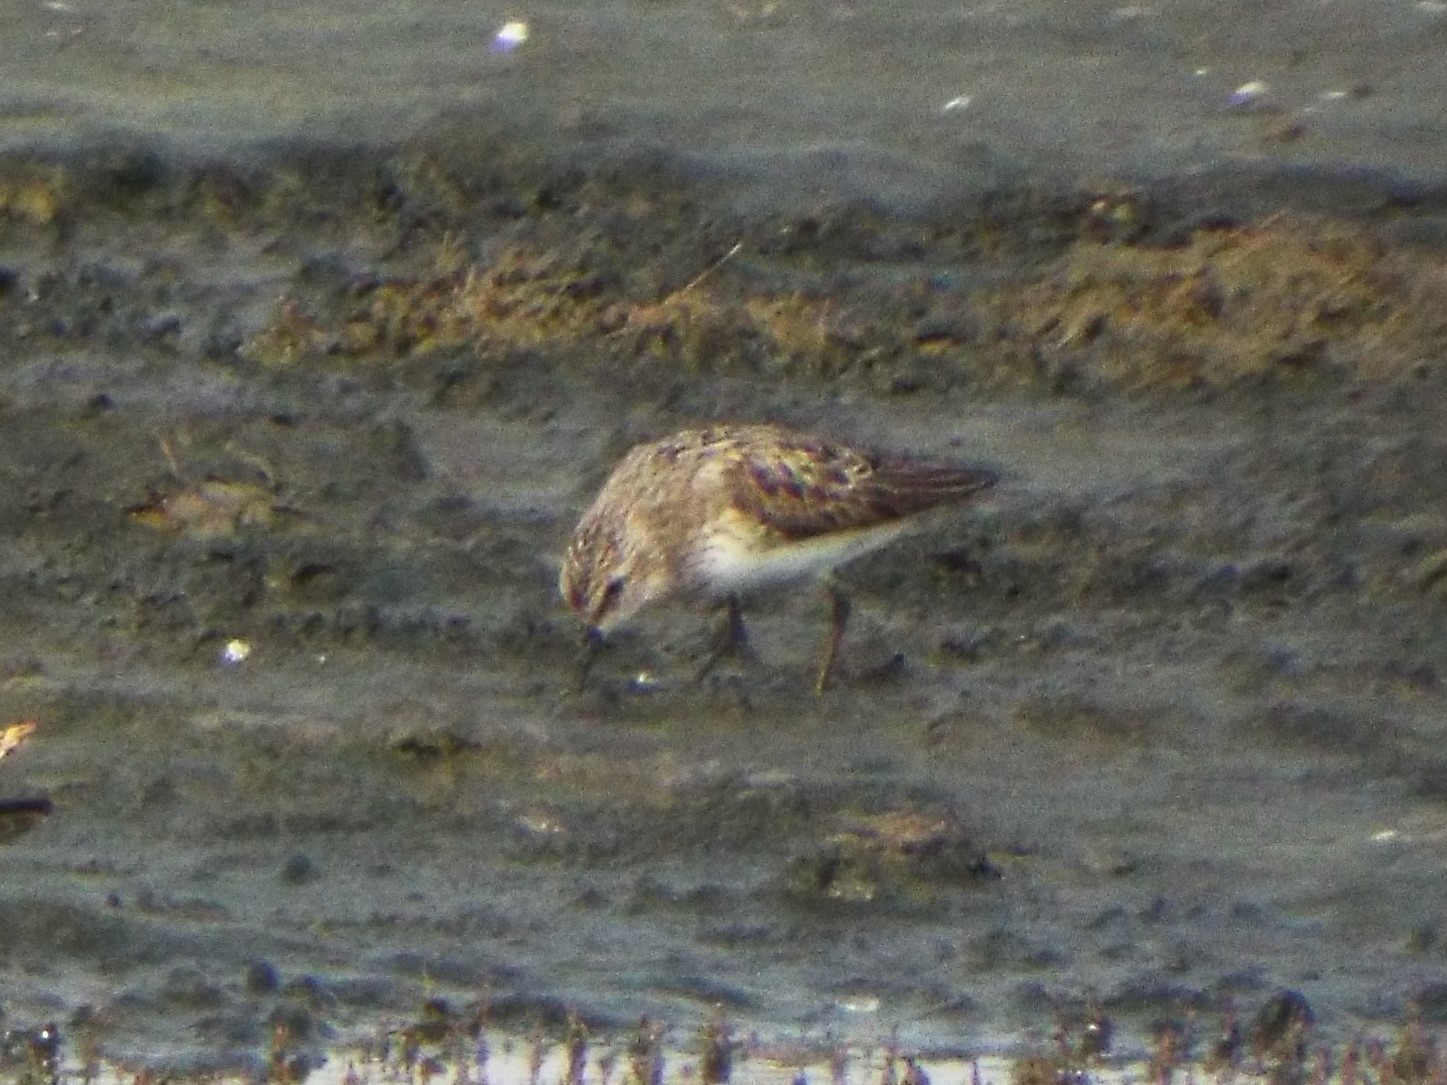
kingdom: Animalia
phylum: Chordata
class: Aves
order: Charadriiformes
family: Scolopacidae
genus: Calidris
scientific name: Calidris minutilla
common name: Least sandpiper
